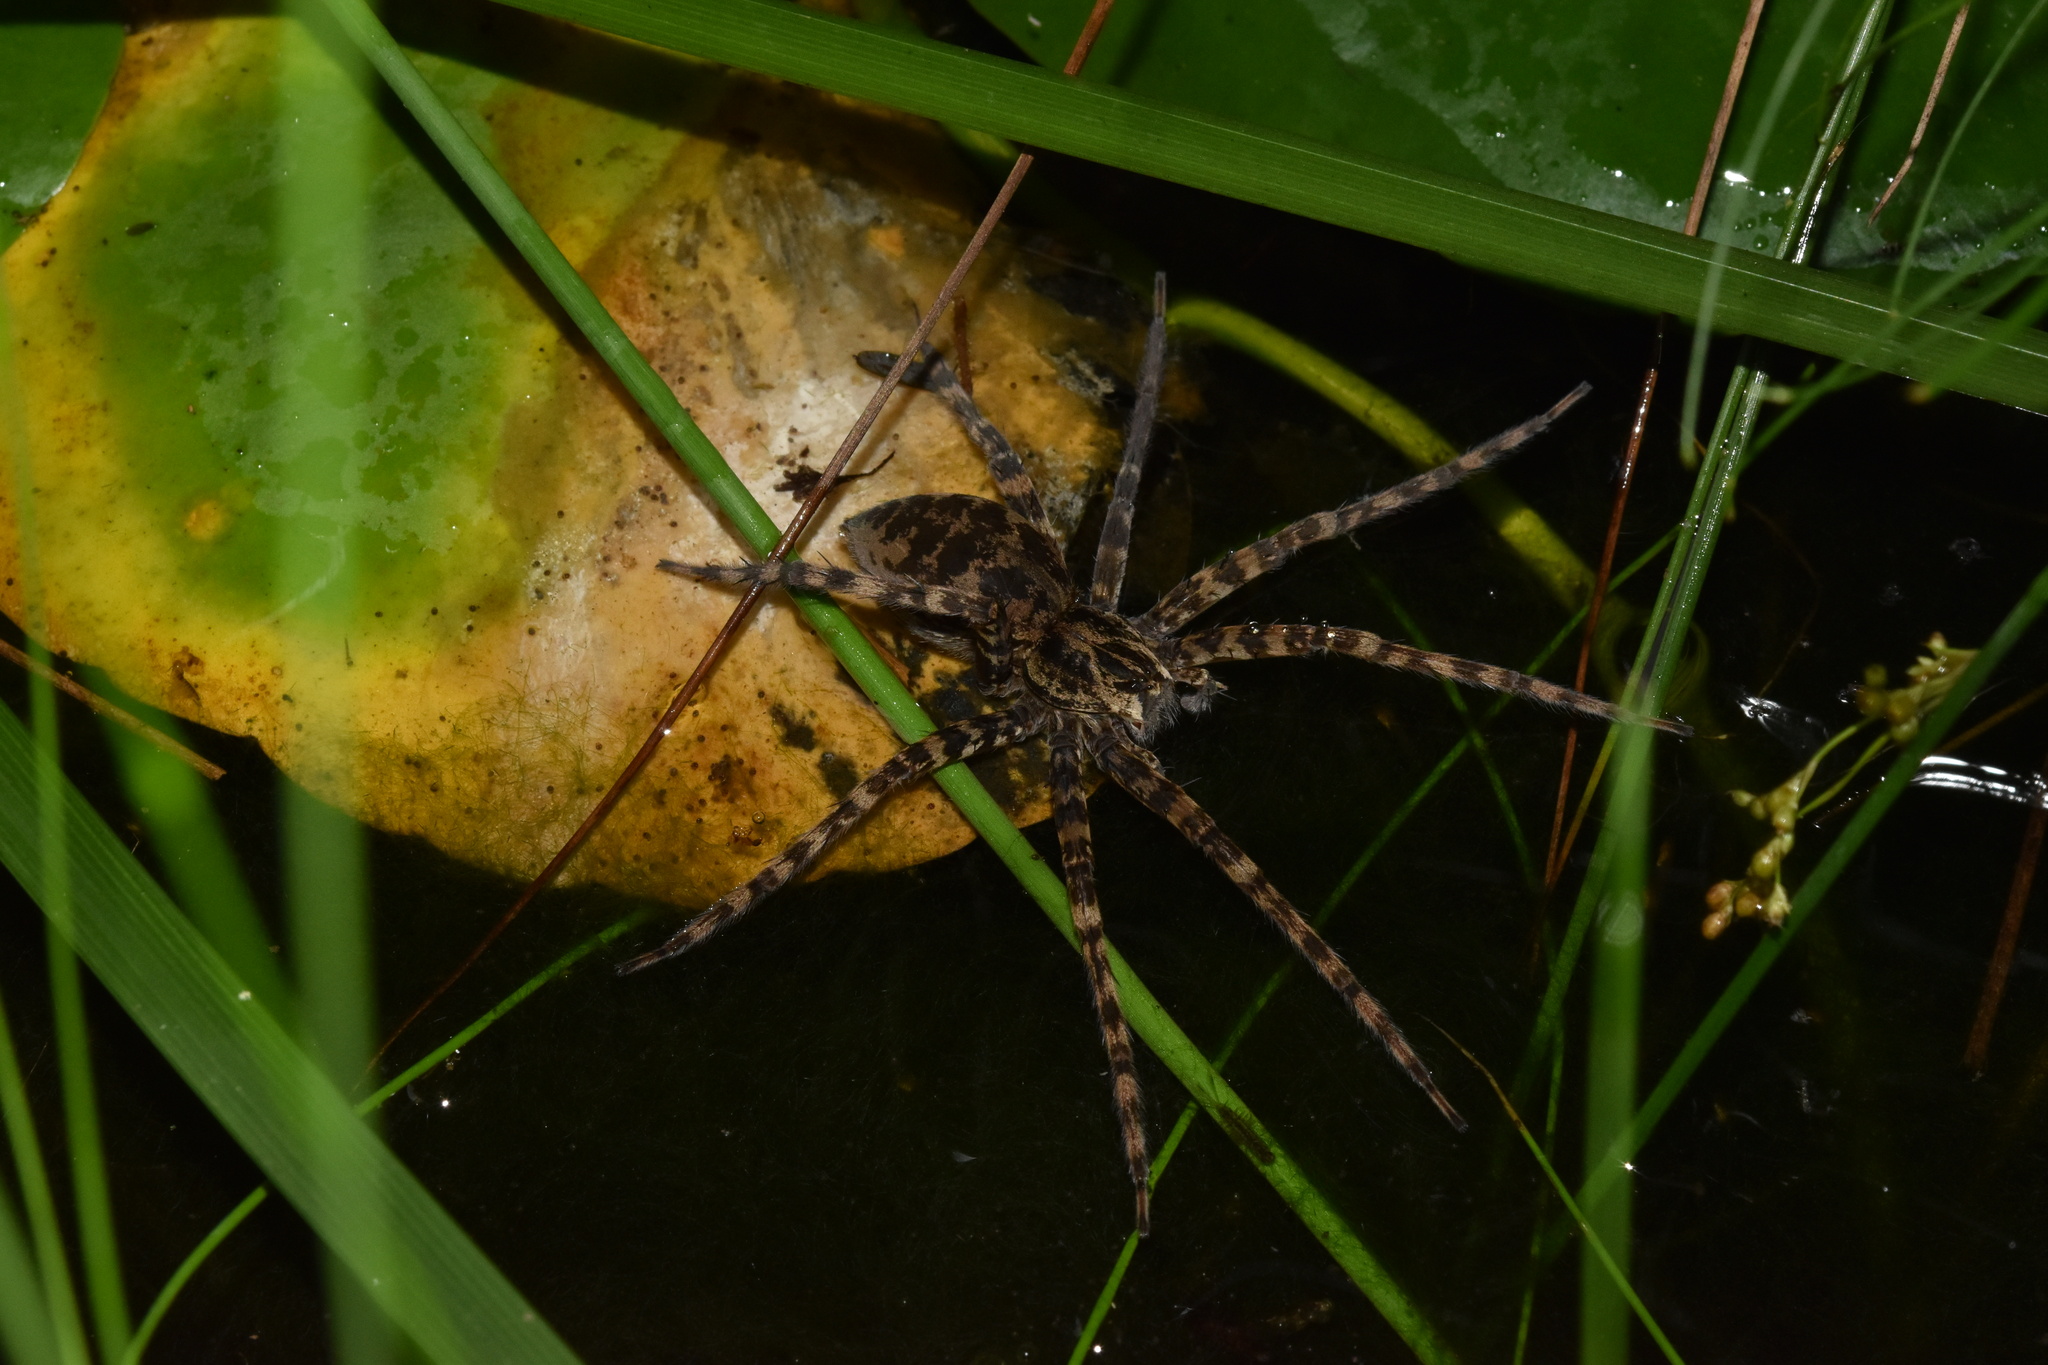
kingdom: Animalia
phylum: Arthropoda
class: Arachnida
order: Araneae
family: Pisauridae
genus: Nilus
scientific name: Nilus radiatolineatus
